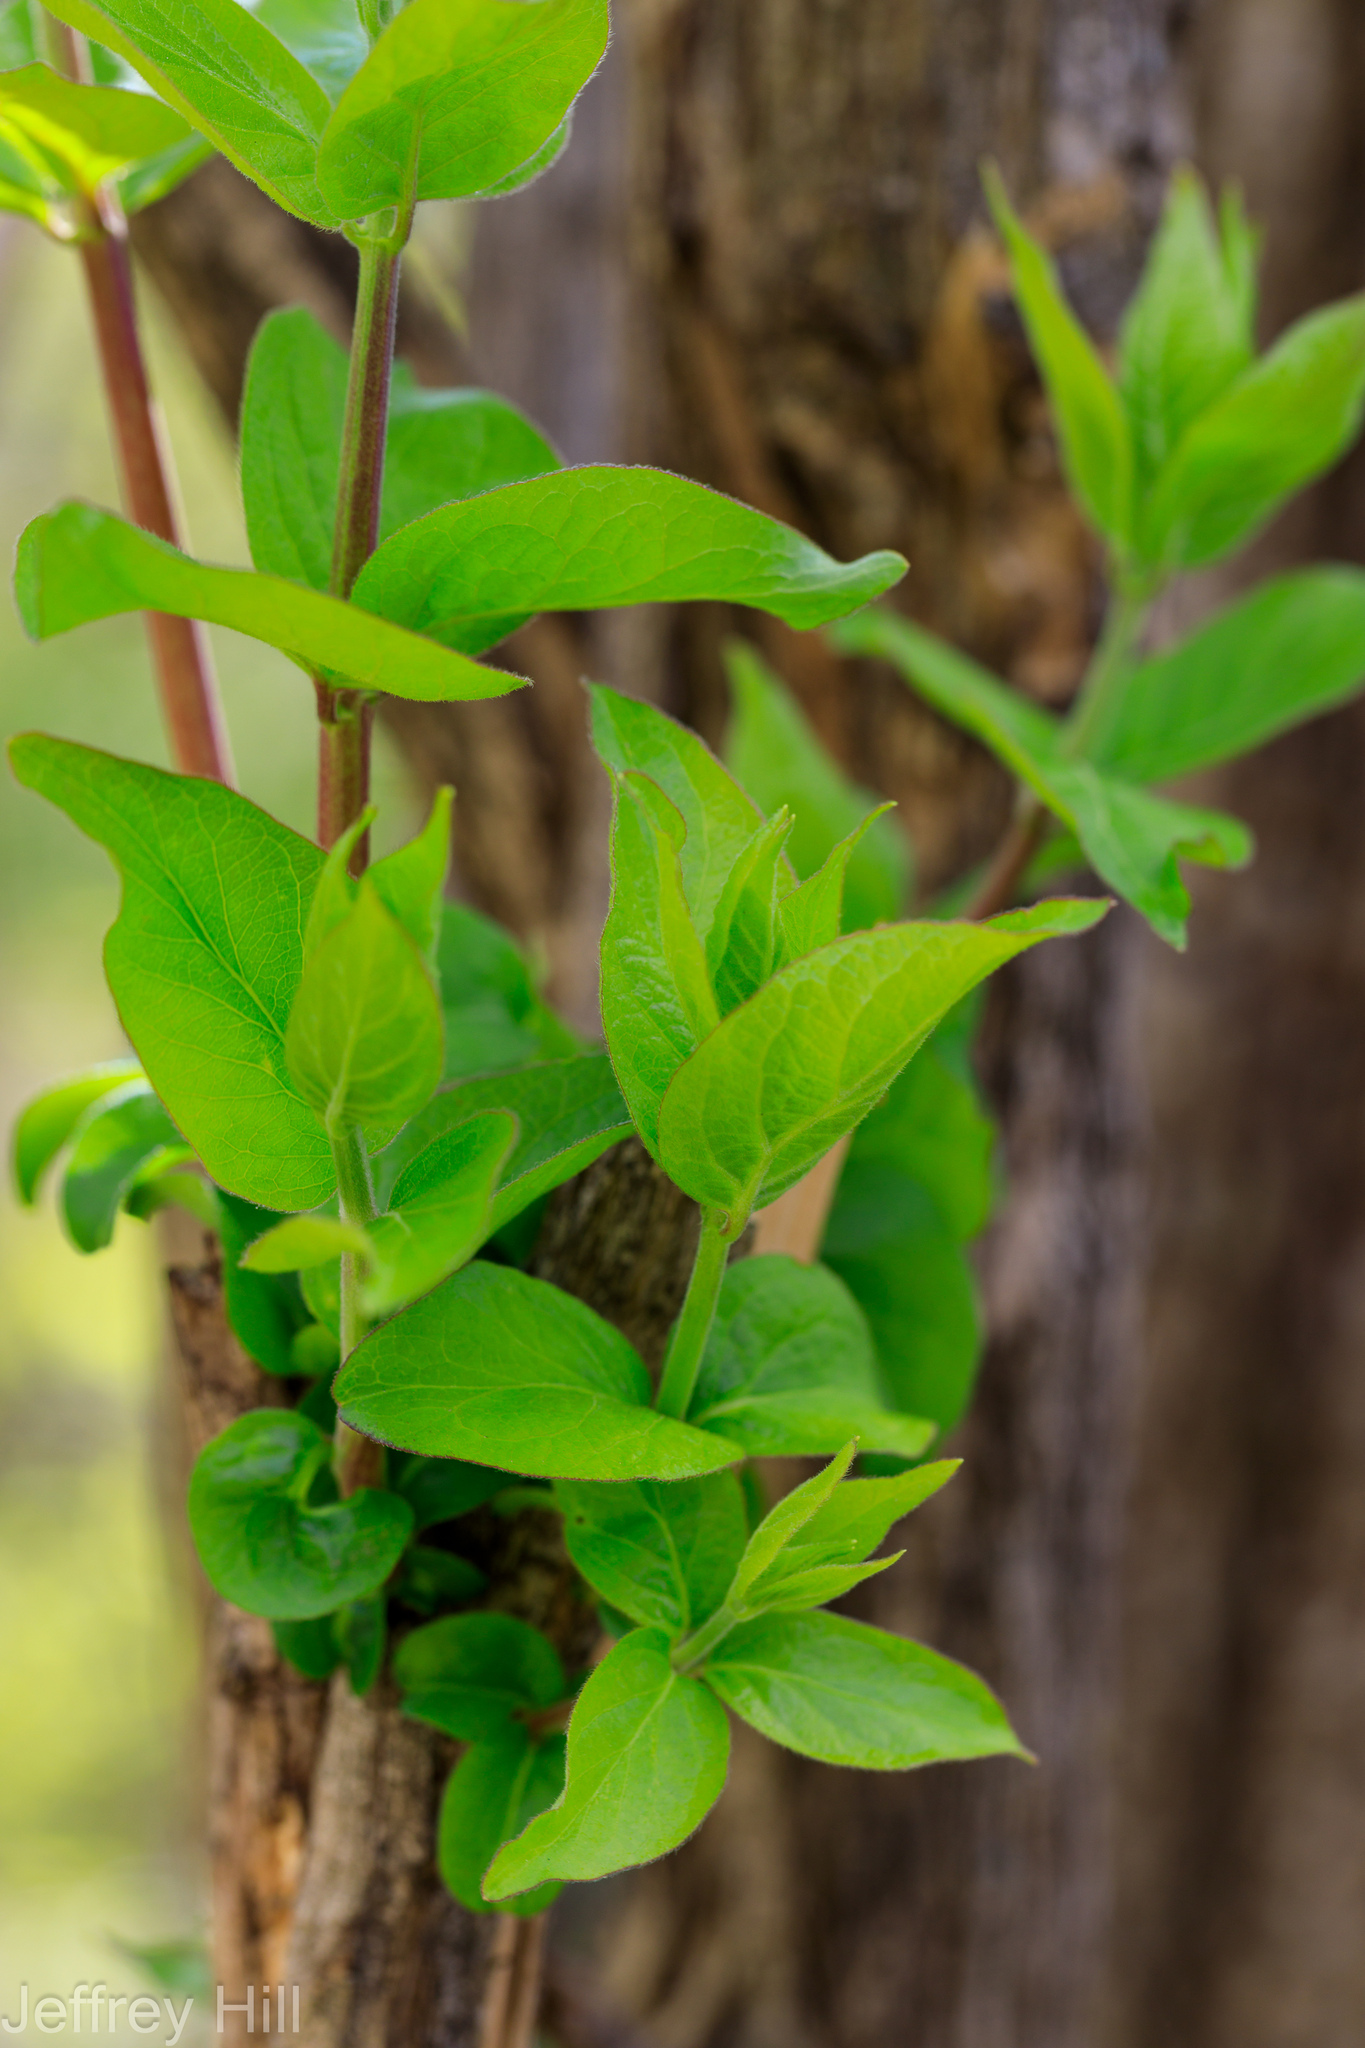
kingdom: Plantae
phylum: Tracheophyta
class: Magnoliopsida
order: Dipsacales
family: Caprifoliaceae
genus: Lonicera
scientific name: Lonicera maackii
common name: Amur honeysuckle
